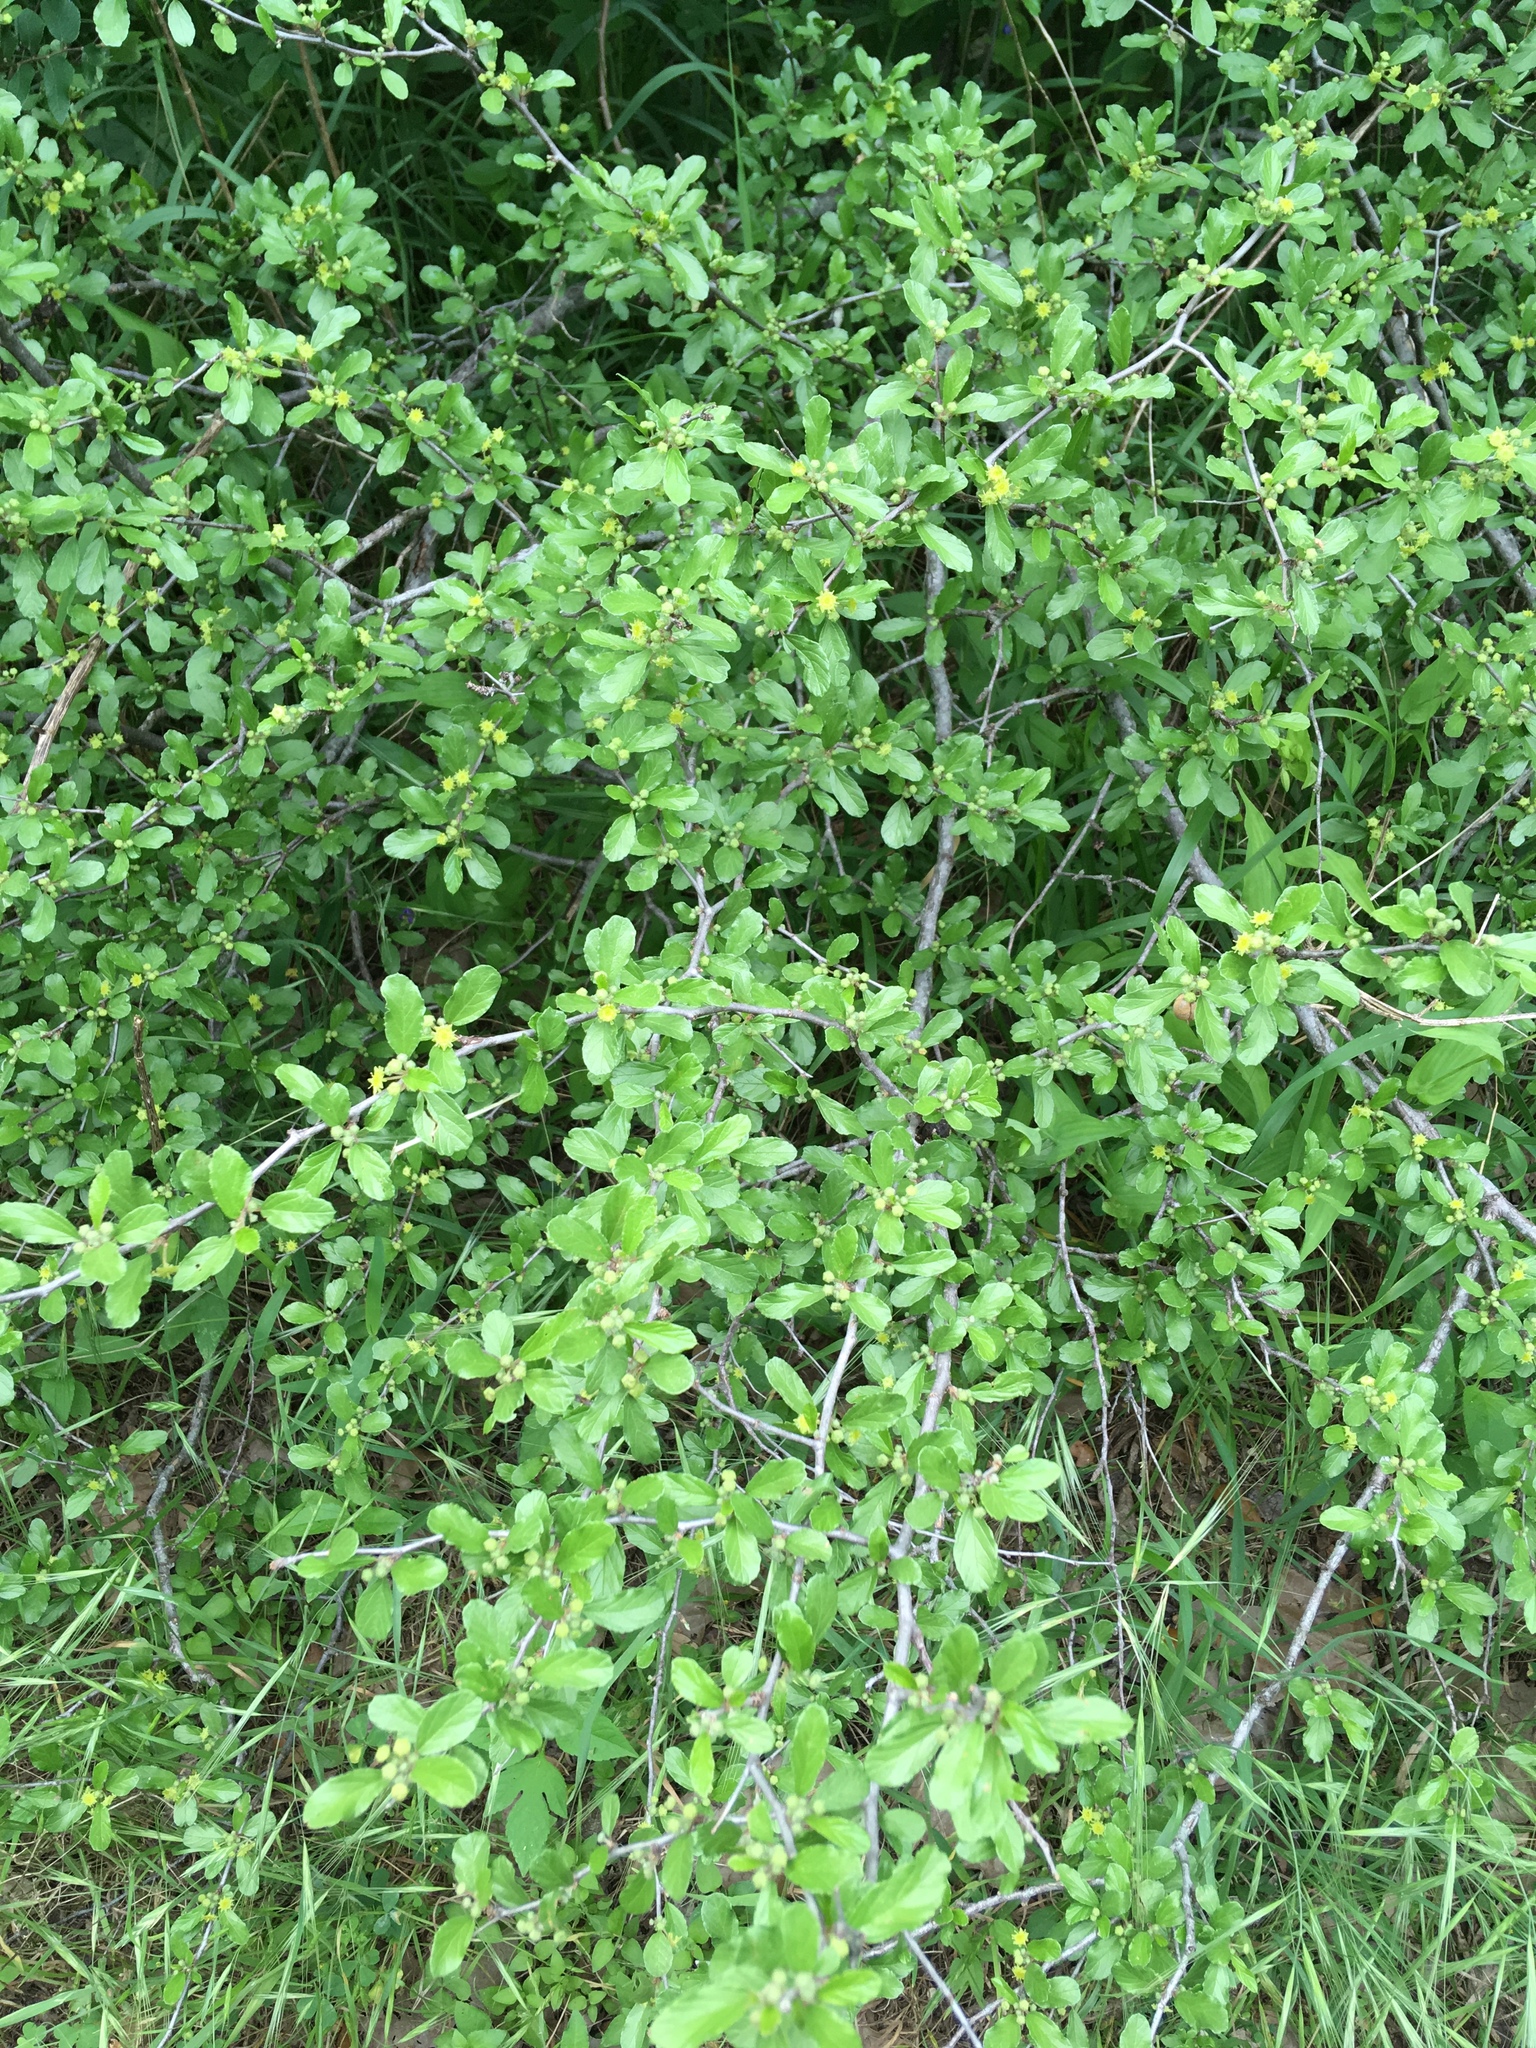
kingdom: Plantae
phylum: Tracheophyta
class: Magnoliopsida
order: Rosales
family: Rhamnaceae
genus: Colubrina
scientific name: Colubrina texensis
